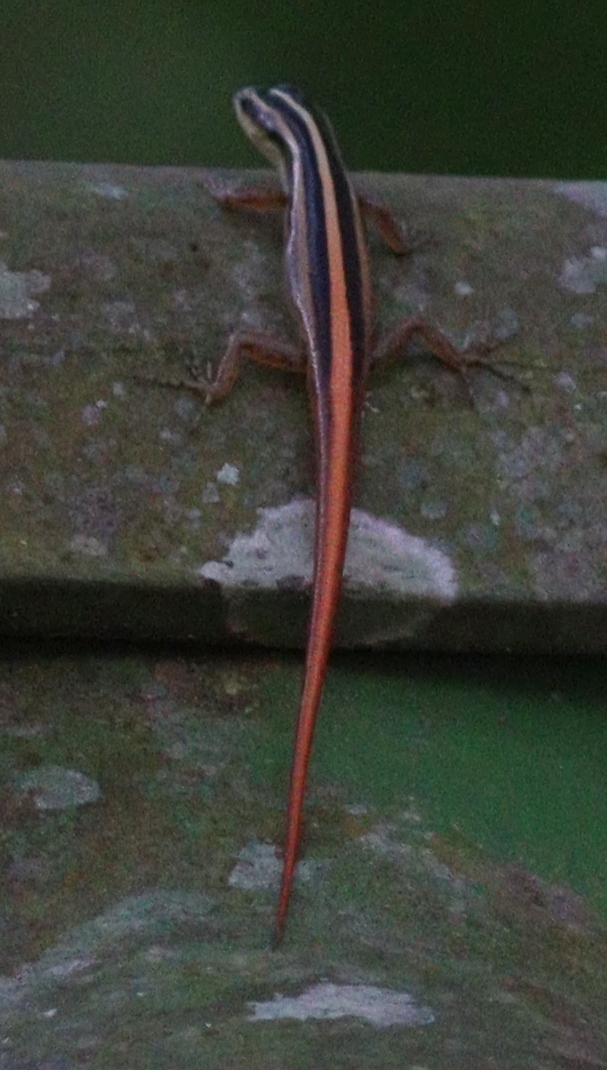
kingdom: Animalia
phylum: Chordata
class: Squamata
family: Scincidae
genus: Lipinia
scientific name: Lipinia trivittata
